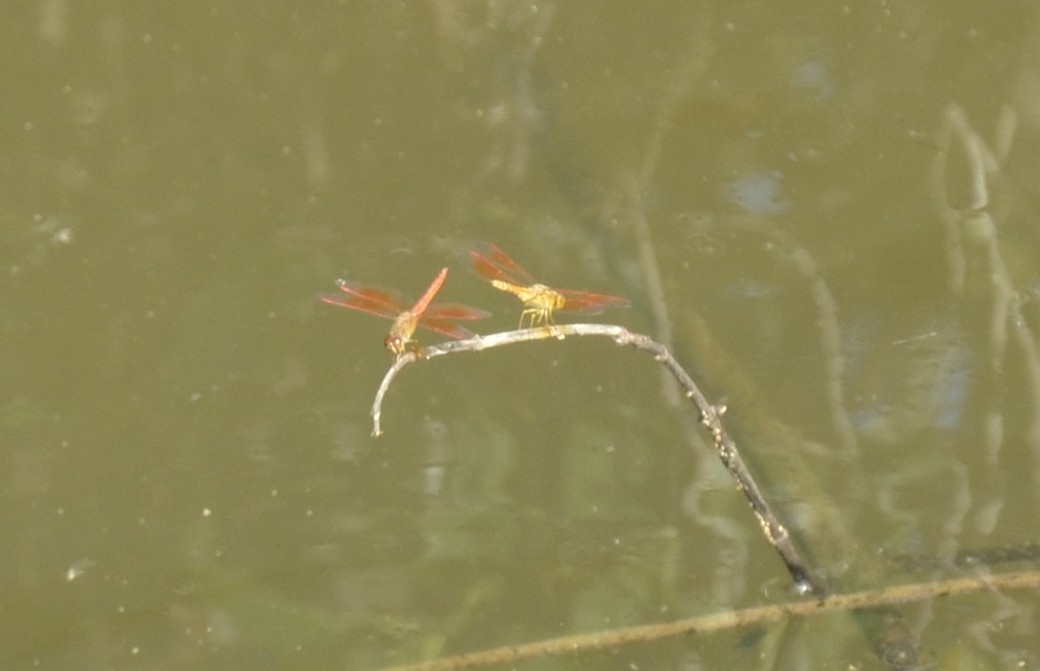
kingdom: Animalia
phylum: Arthropoda
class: Insecta
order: Odonata
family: Libellulidae
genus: Brachythemis
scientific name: Brachythemis contaminata
